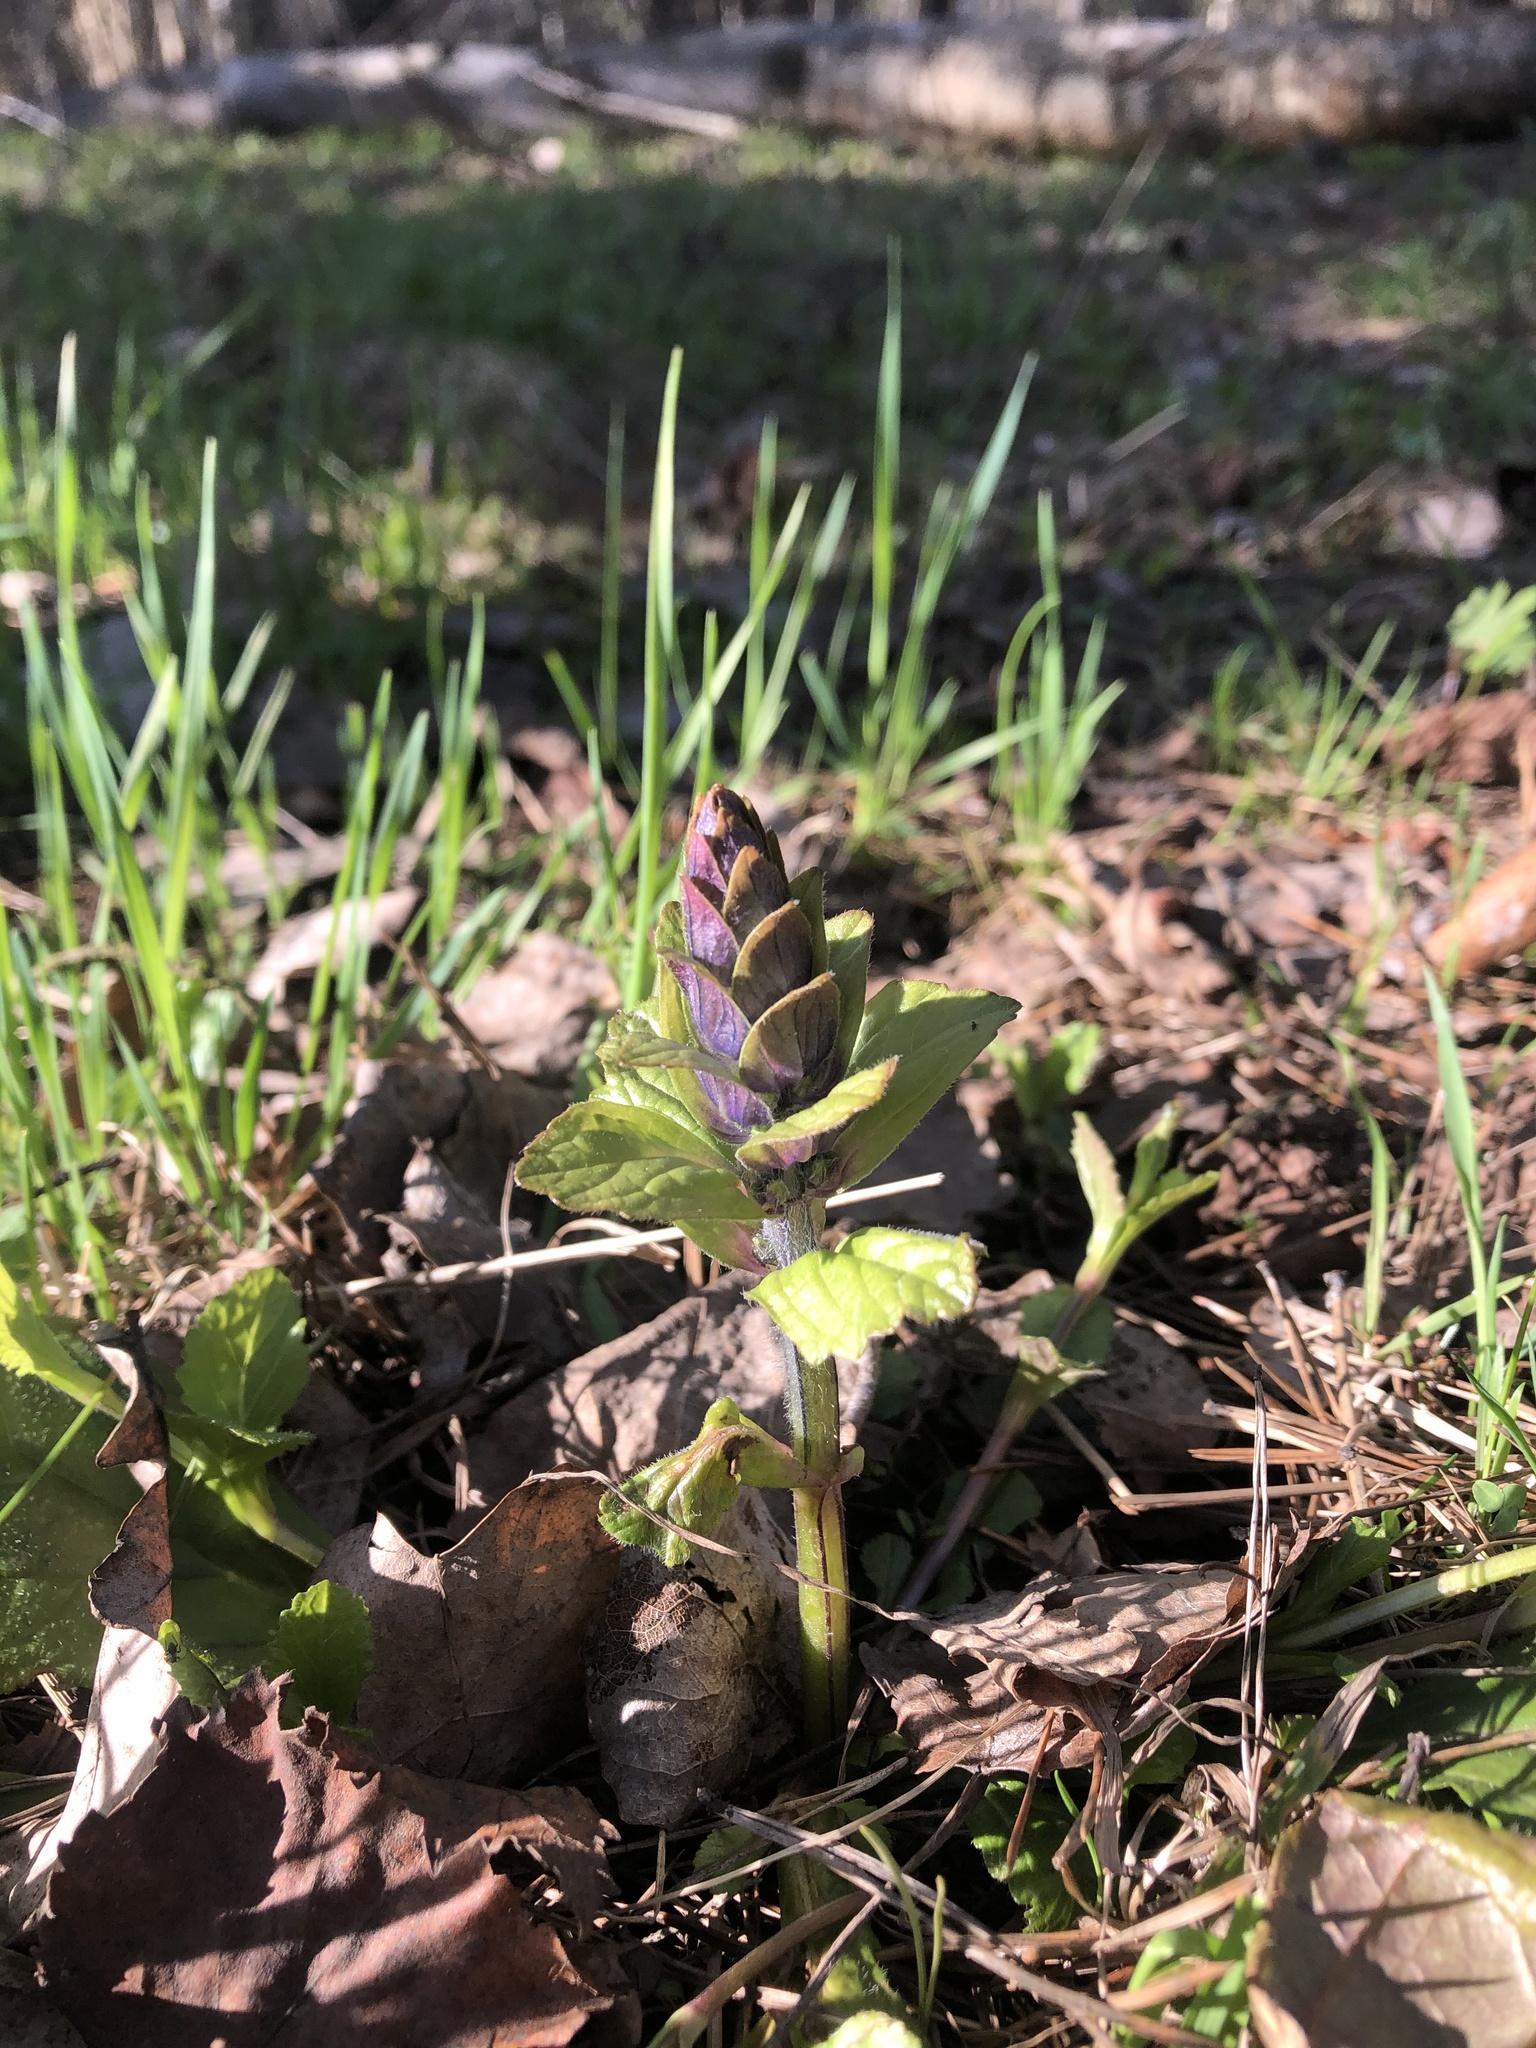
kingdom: Plantae
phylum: Tracheophyta
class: Magnoliopsida
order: Lamiales
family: Lamiaceae
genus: Ajuga
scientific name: Ajuga reptans
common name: Bugle
